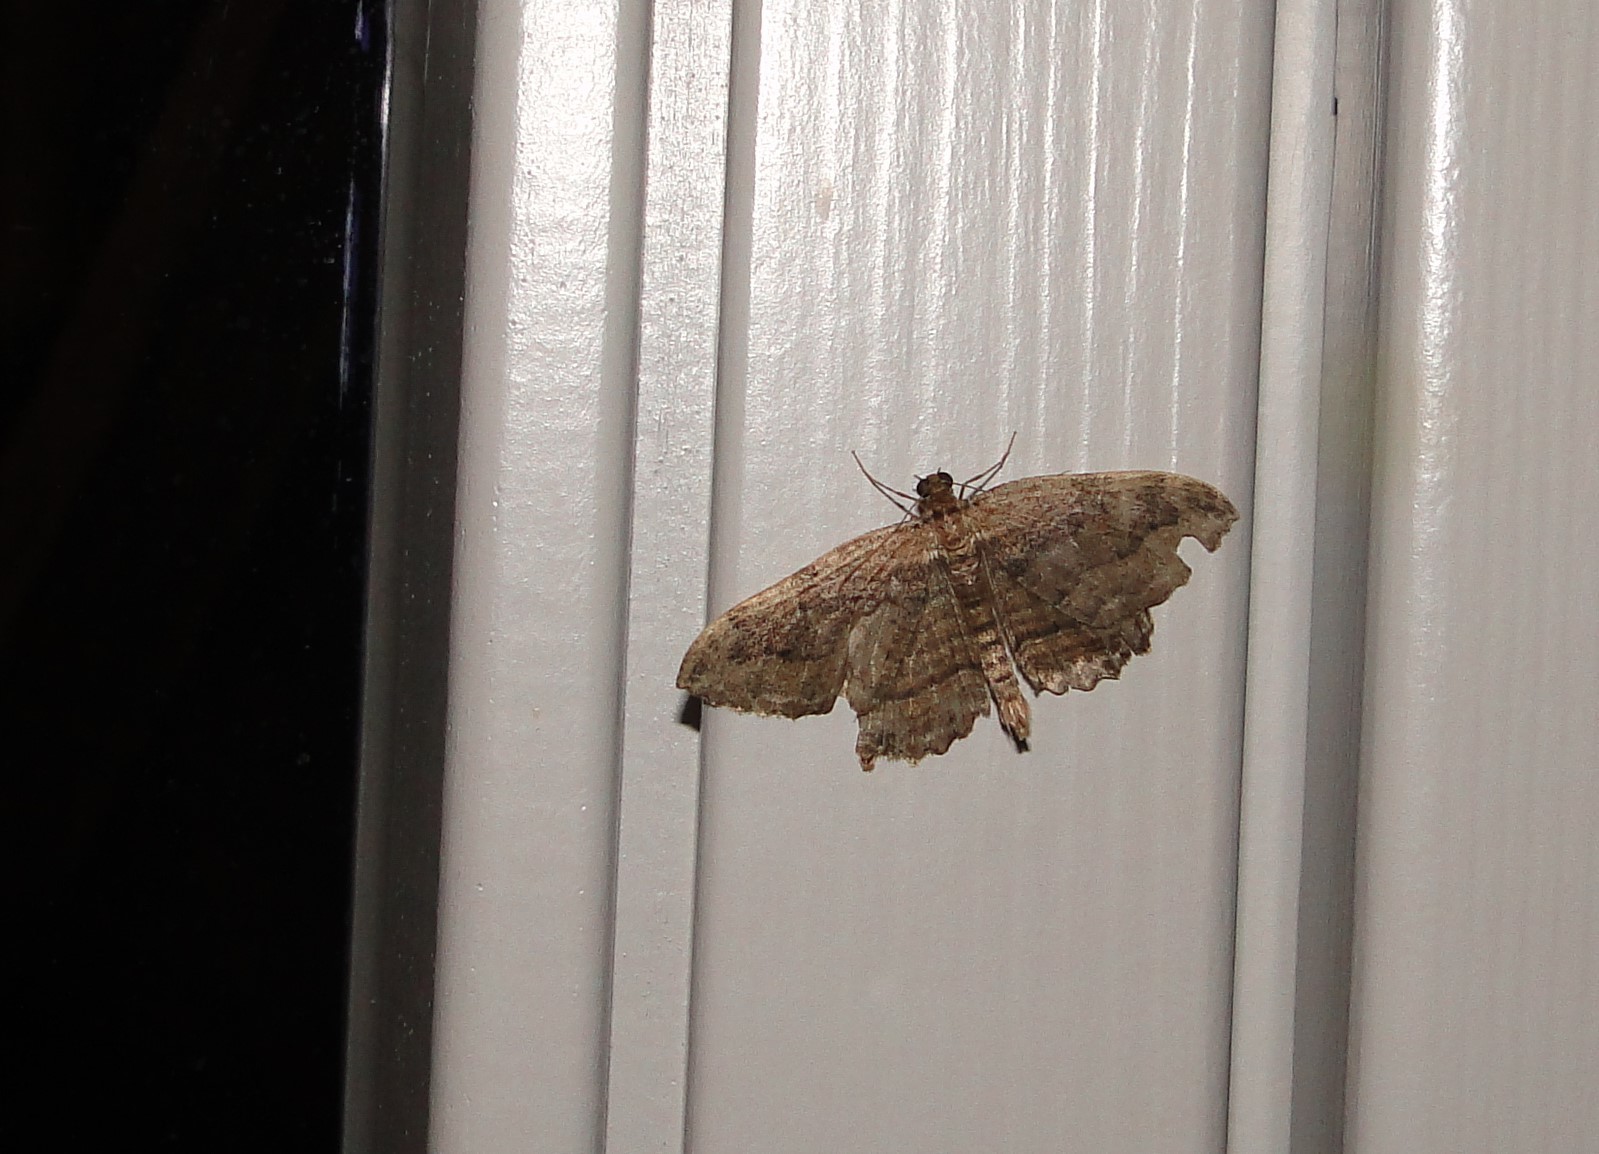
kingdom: Animalia
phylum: Arthropoda
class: Insecta
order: Lepidoptera
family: Geometridae
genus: Philereme
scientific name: Philereme transversata
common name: Dark umber
